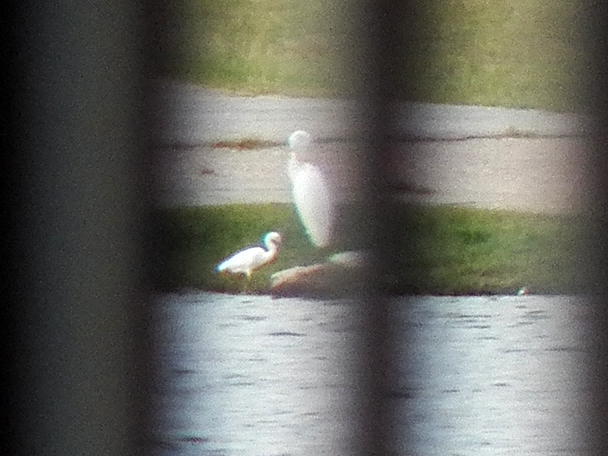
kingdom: Animalia
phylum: Chordata
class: Aves
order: Pelecaniformes
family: Ardeidae
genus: Ardea
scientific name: Ardea alba
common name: Great egret
